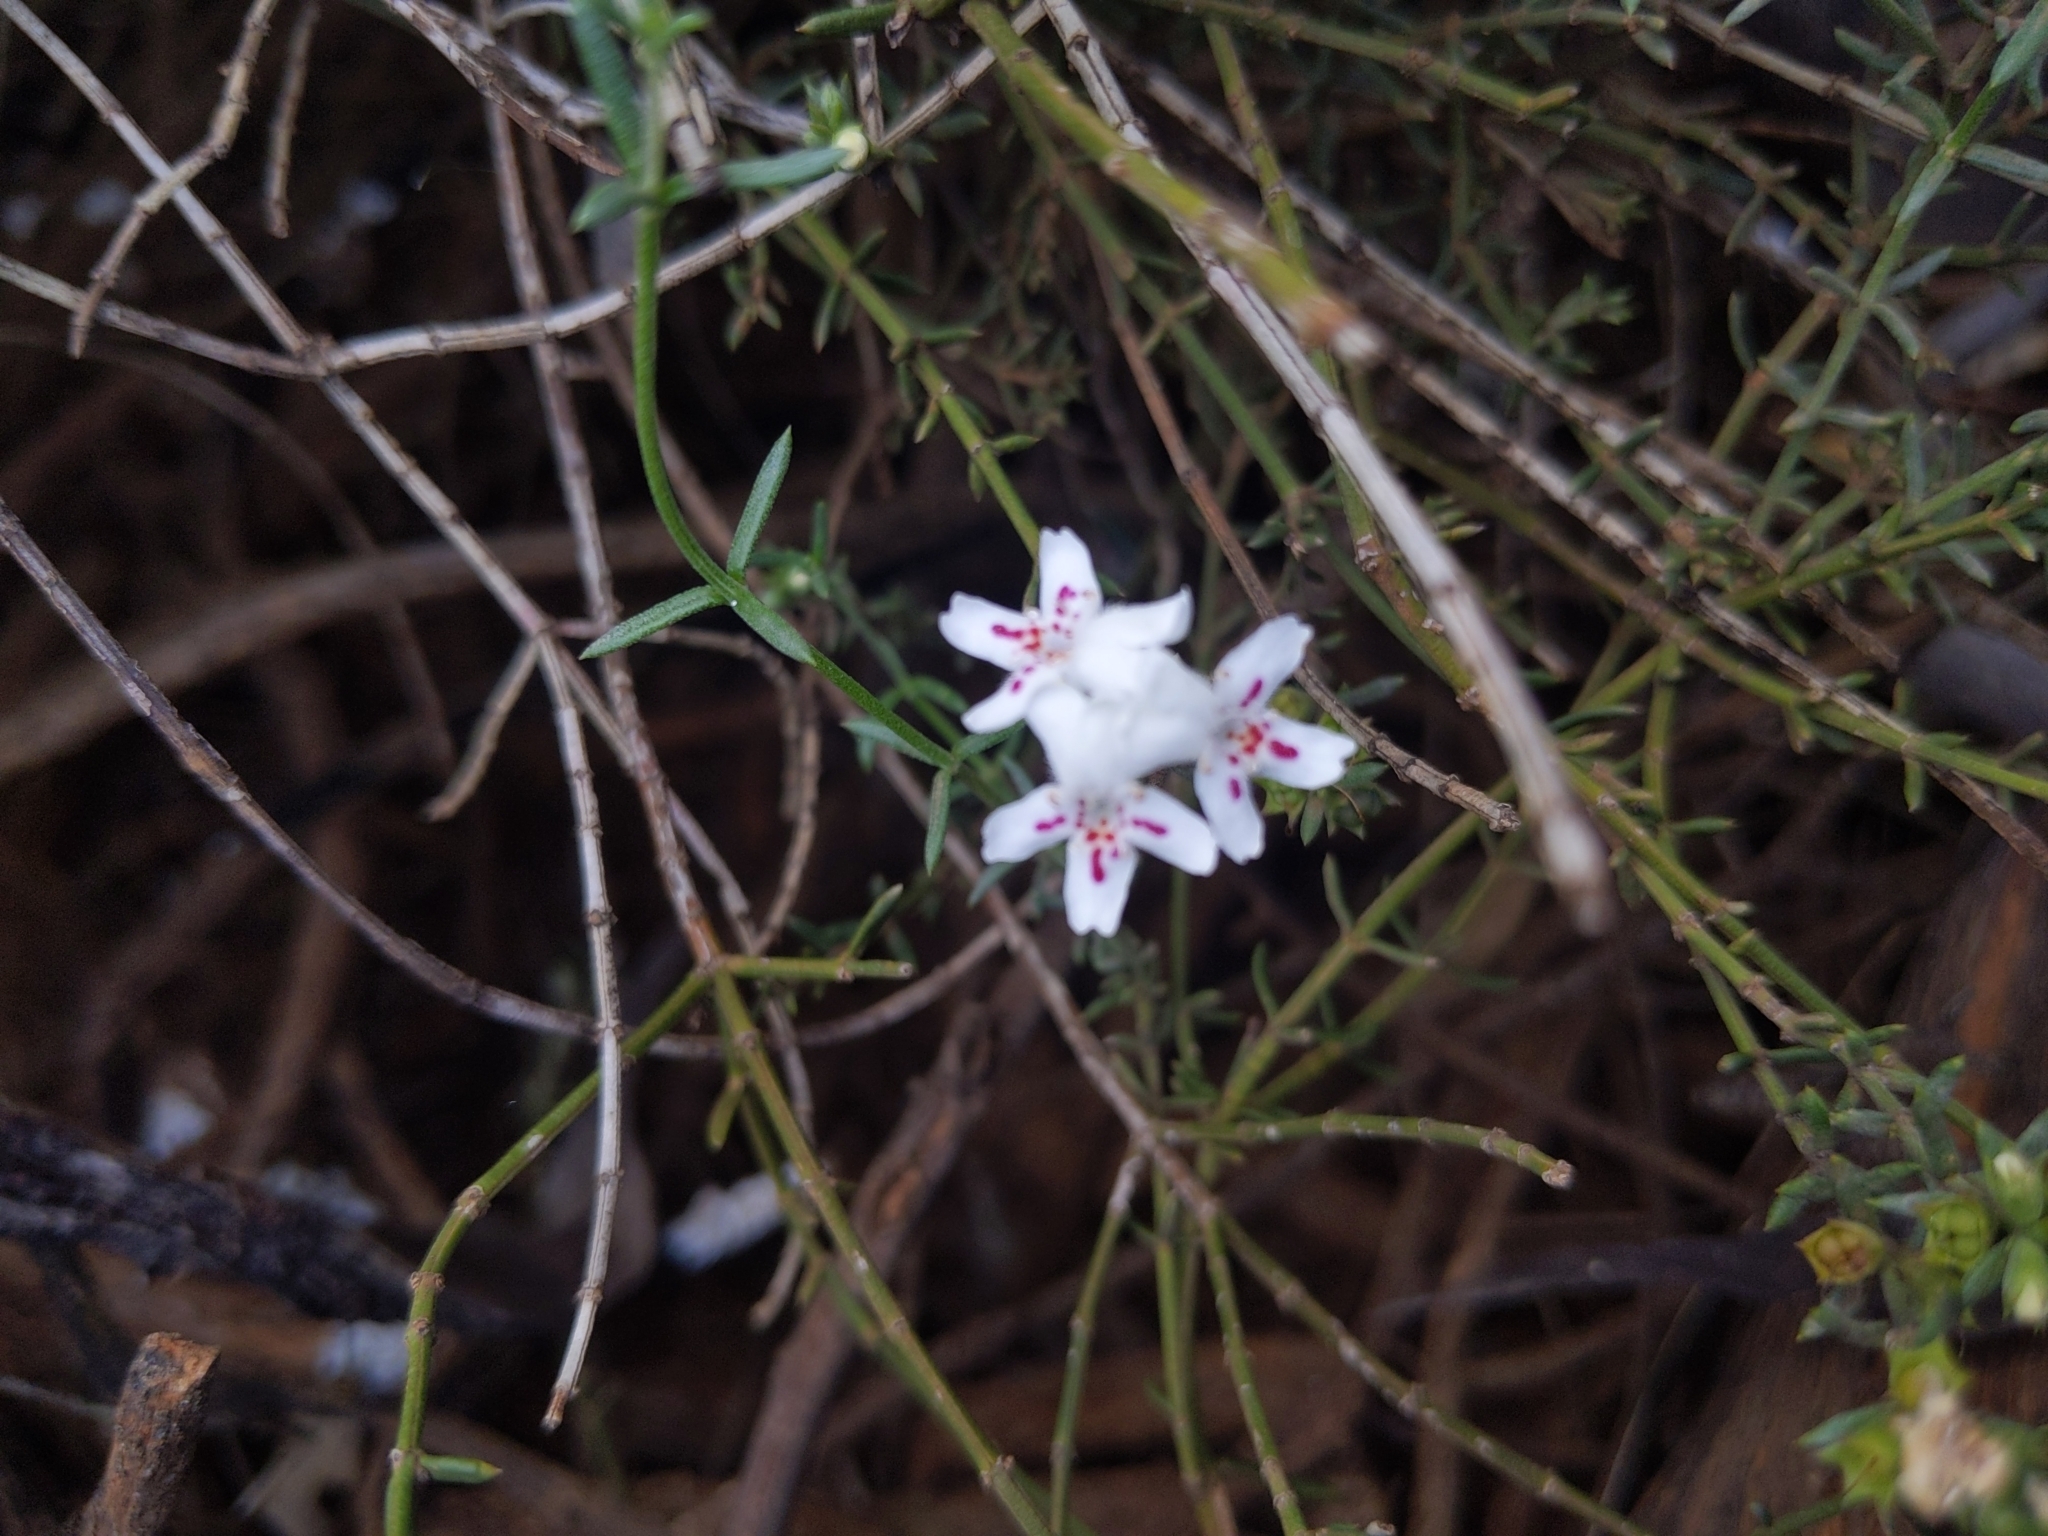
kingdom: Plantae
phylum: Tracheophyta
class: Magnoliopsida
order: Lamiales
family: Lamiaceae
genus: Westringia
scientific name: Westringia rigida
